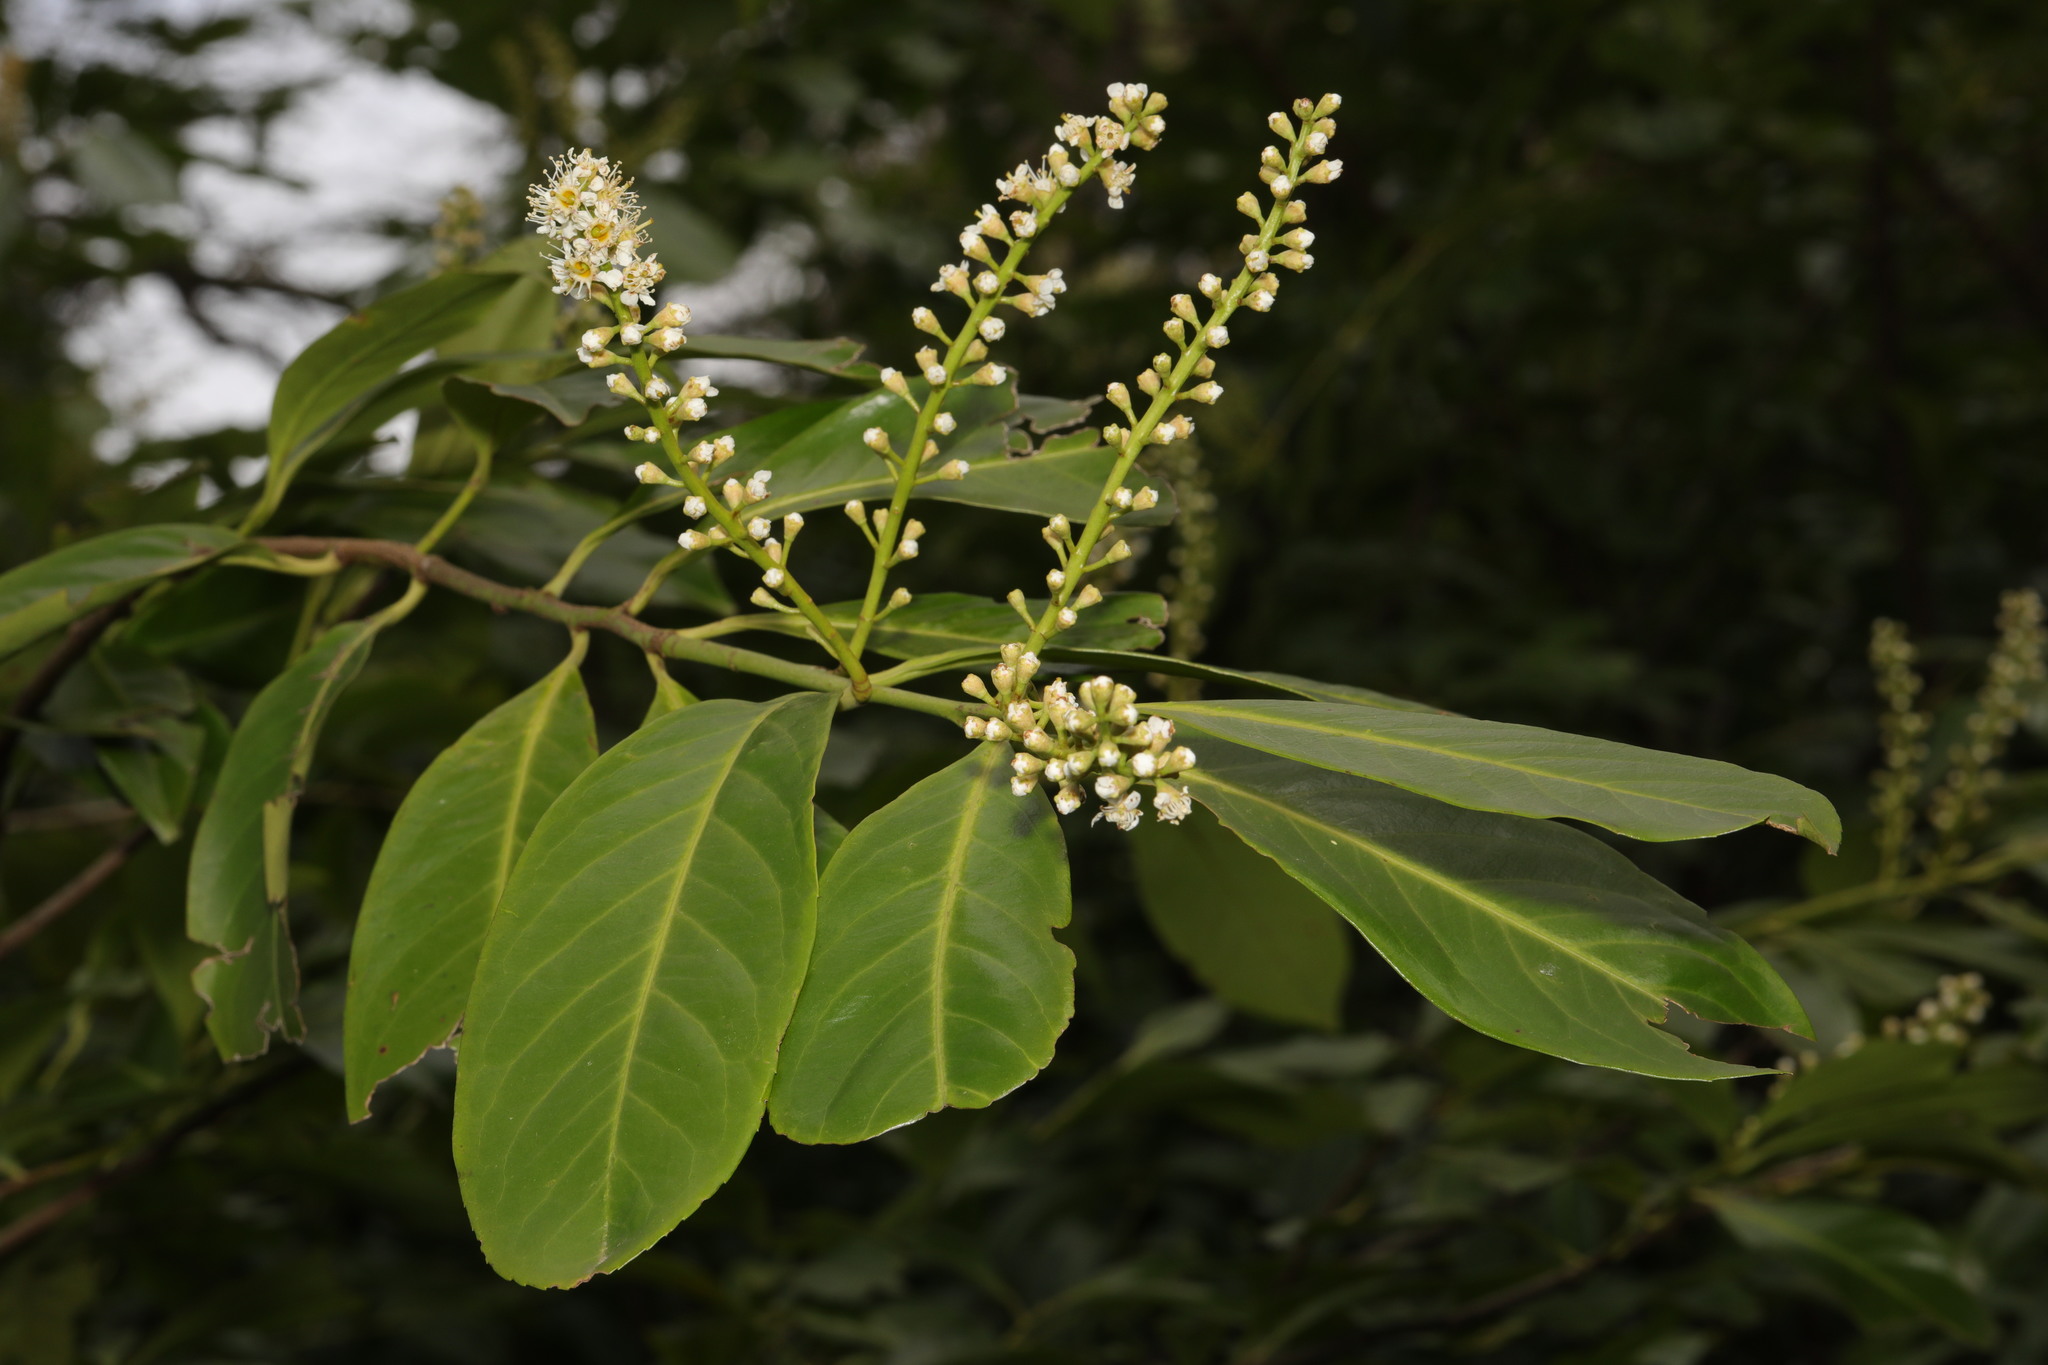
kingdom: Plantae
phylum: Tracheophyta
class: Magnoliopsida
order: Rosales
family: Rosaceae
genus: Prunus
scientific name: Prunus laurocerasus
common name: Cherry laurel
